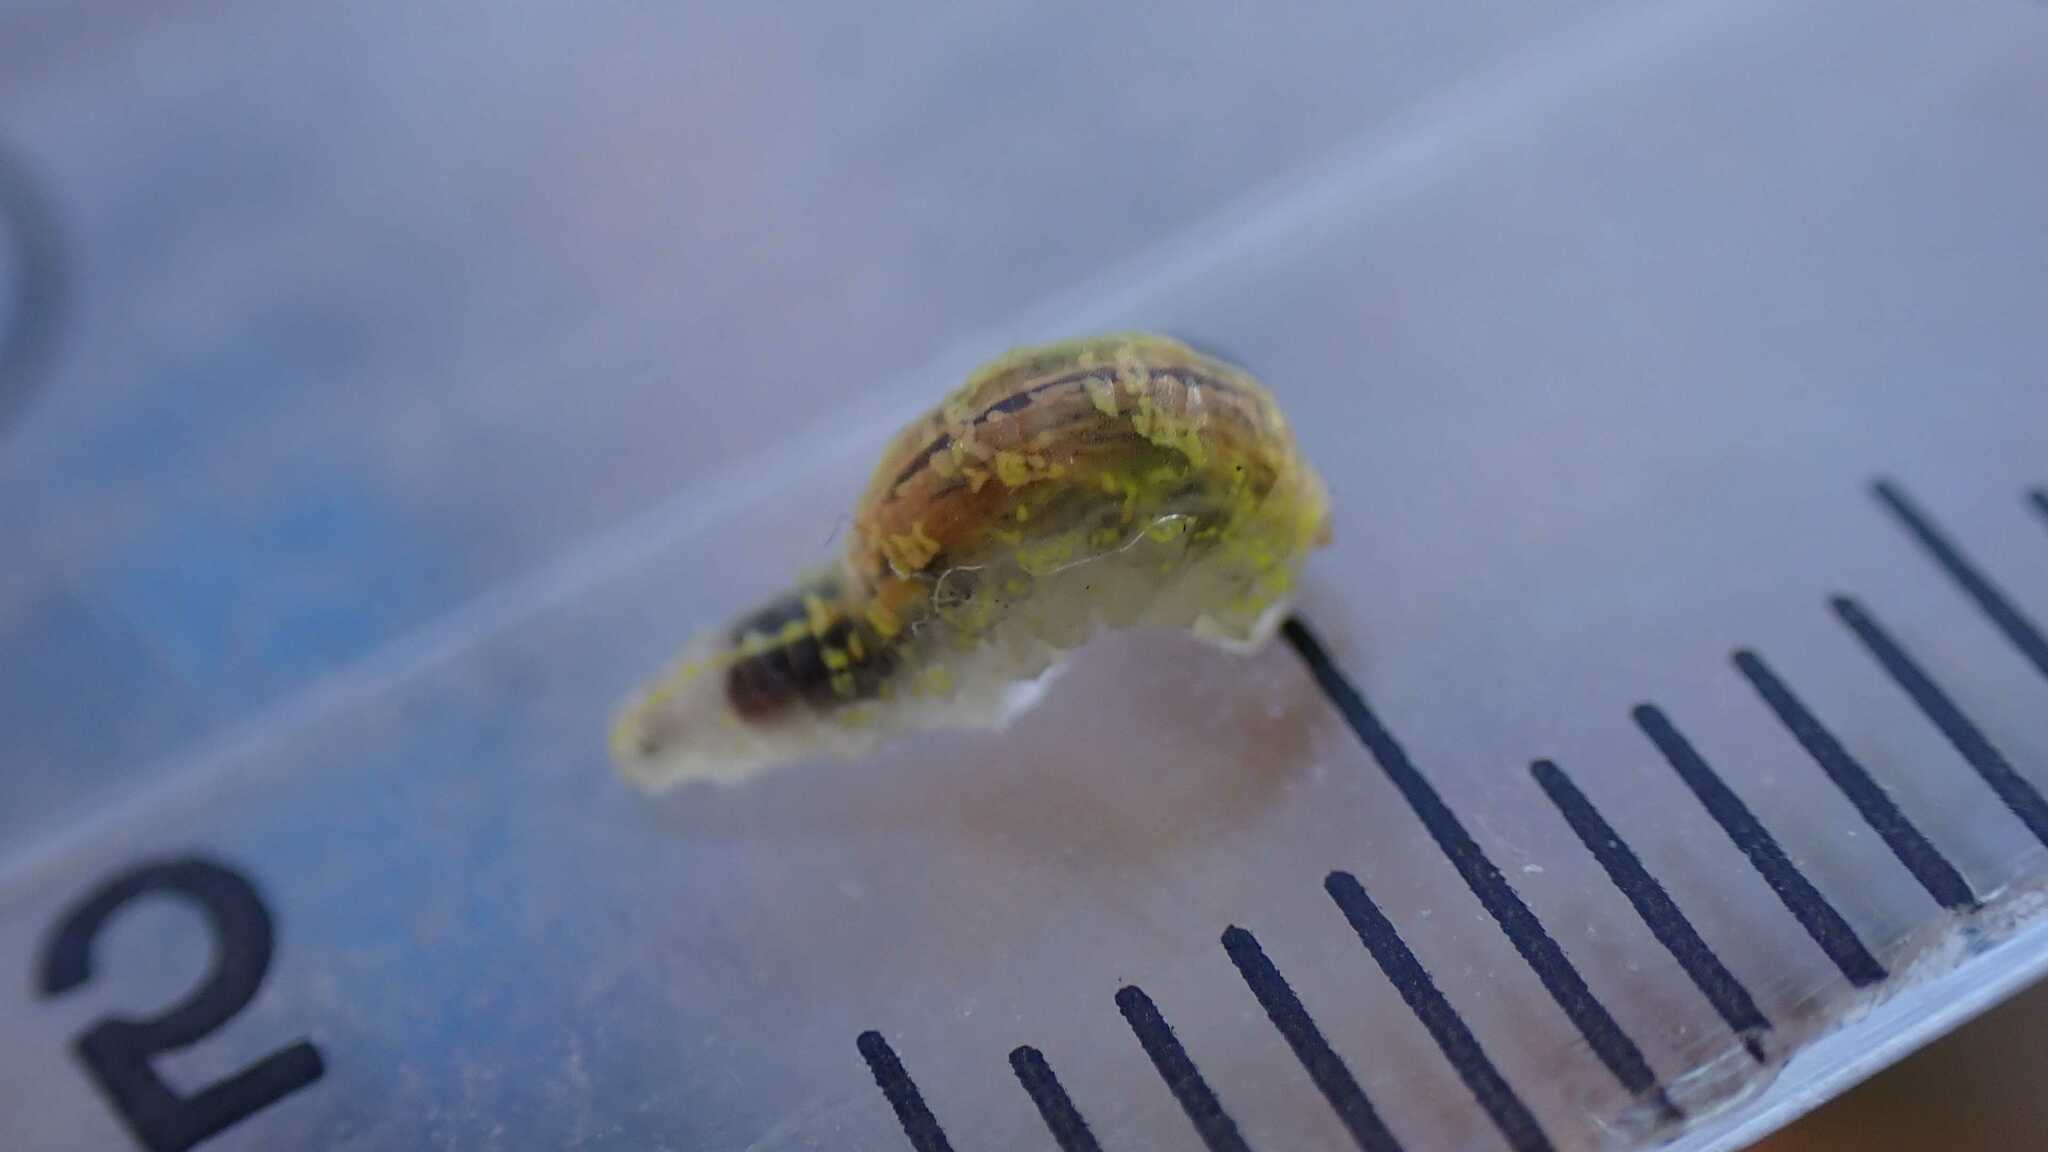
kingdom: Animalia
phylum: Arthropoda
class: Insecta
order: Diptera
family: Syrphidae
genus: Syrphus
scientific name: Syrphus
